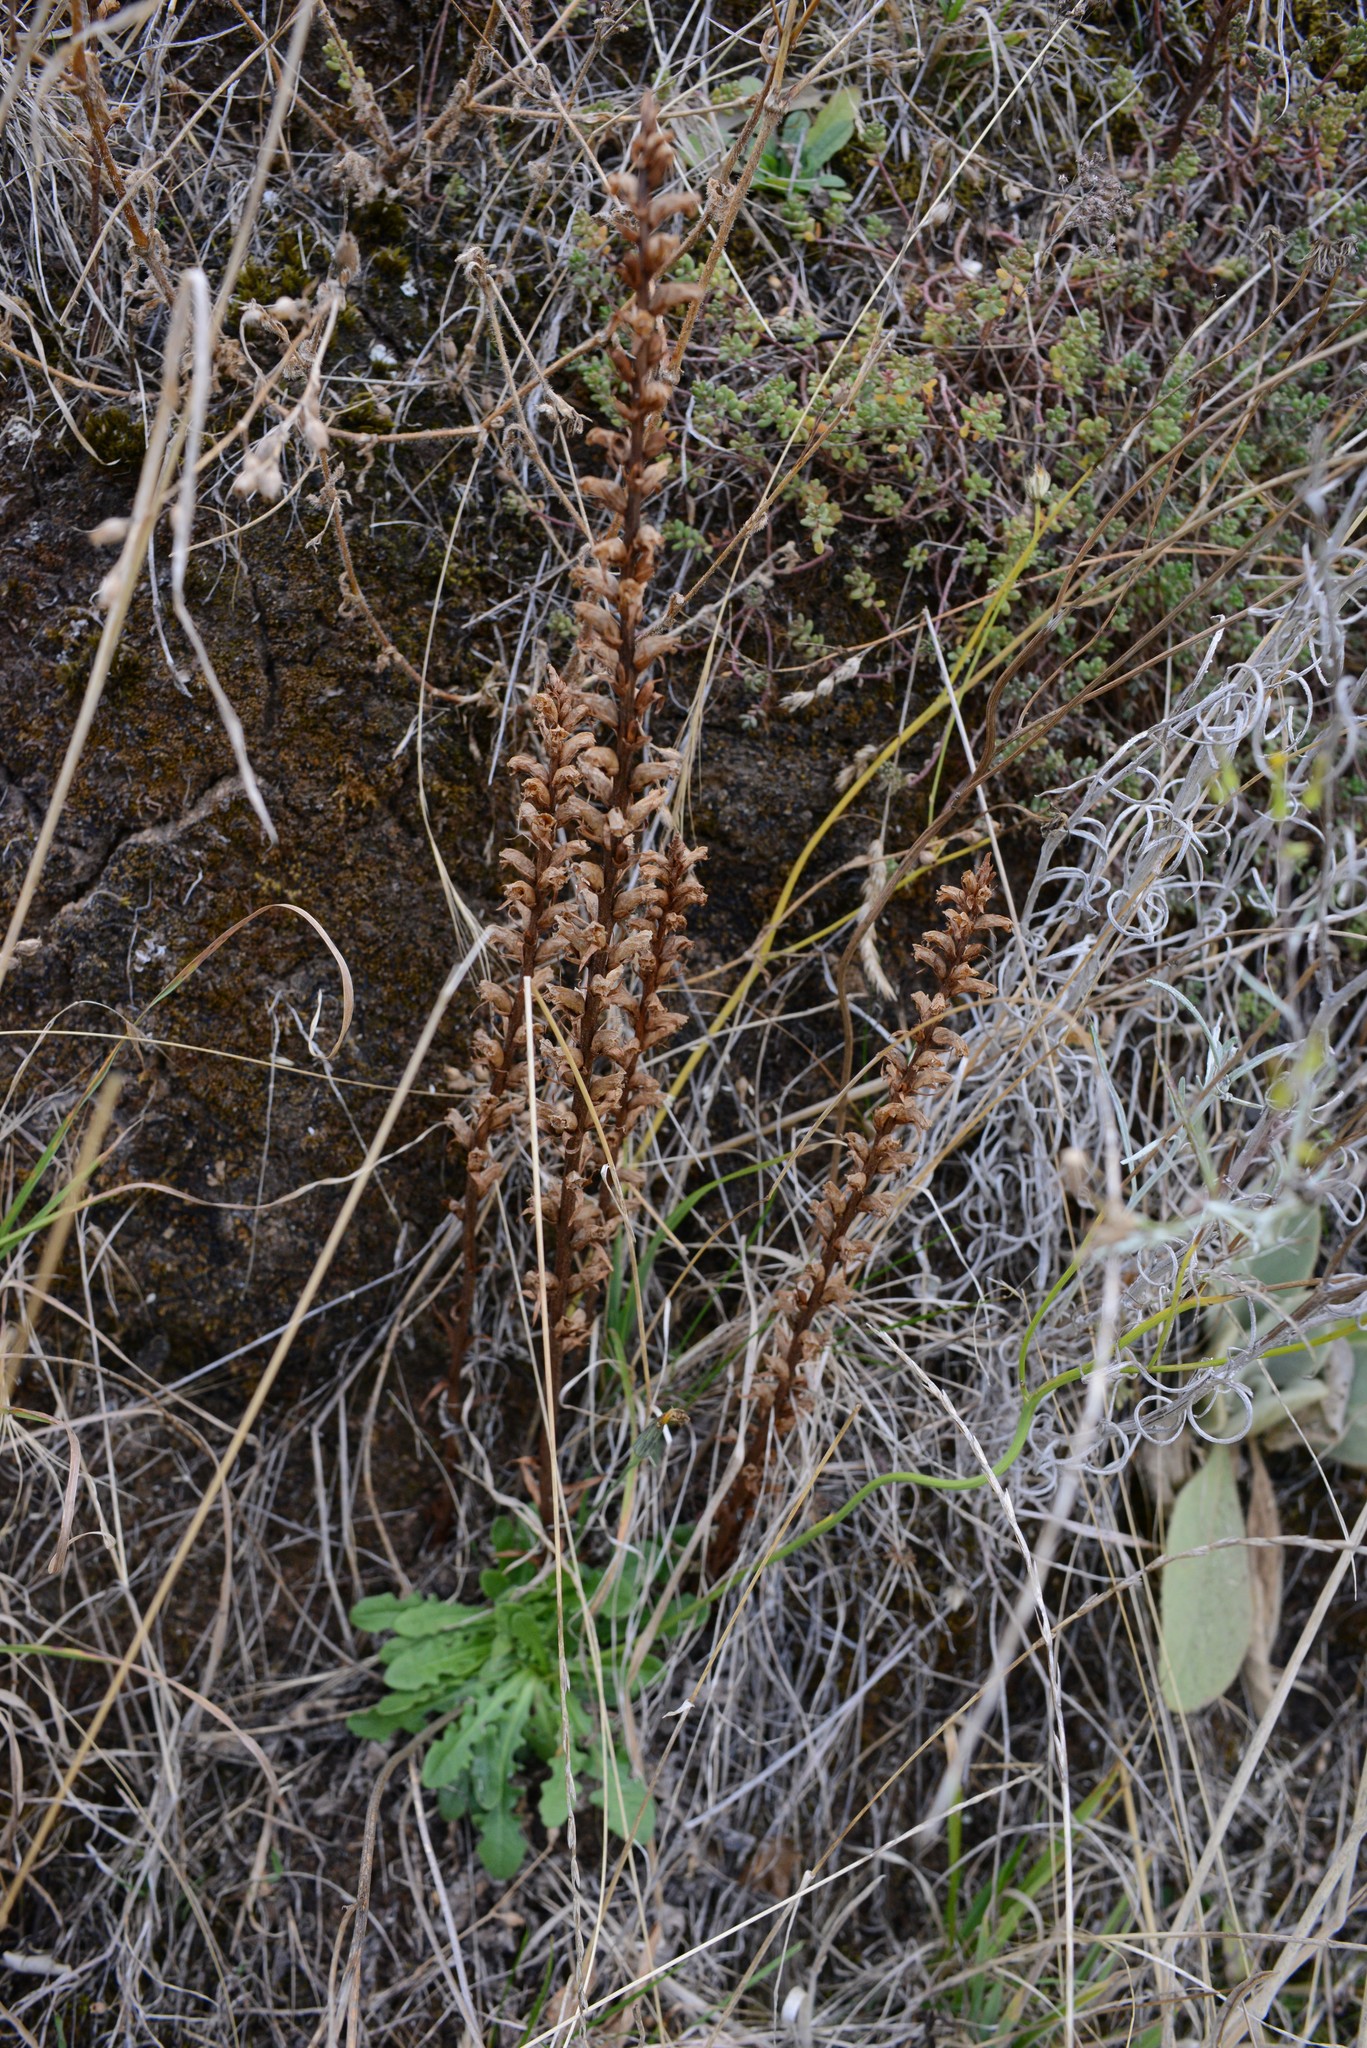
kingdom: Plantae
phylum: Tracheophyta
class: Magnoliopsida
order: Lamiales
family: Orobanchaceae
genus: Orobanche
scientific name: Orobanche minor
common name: Common broomrape
